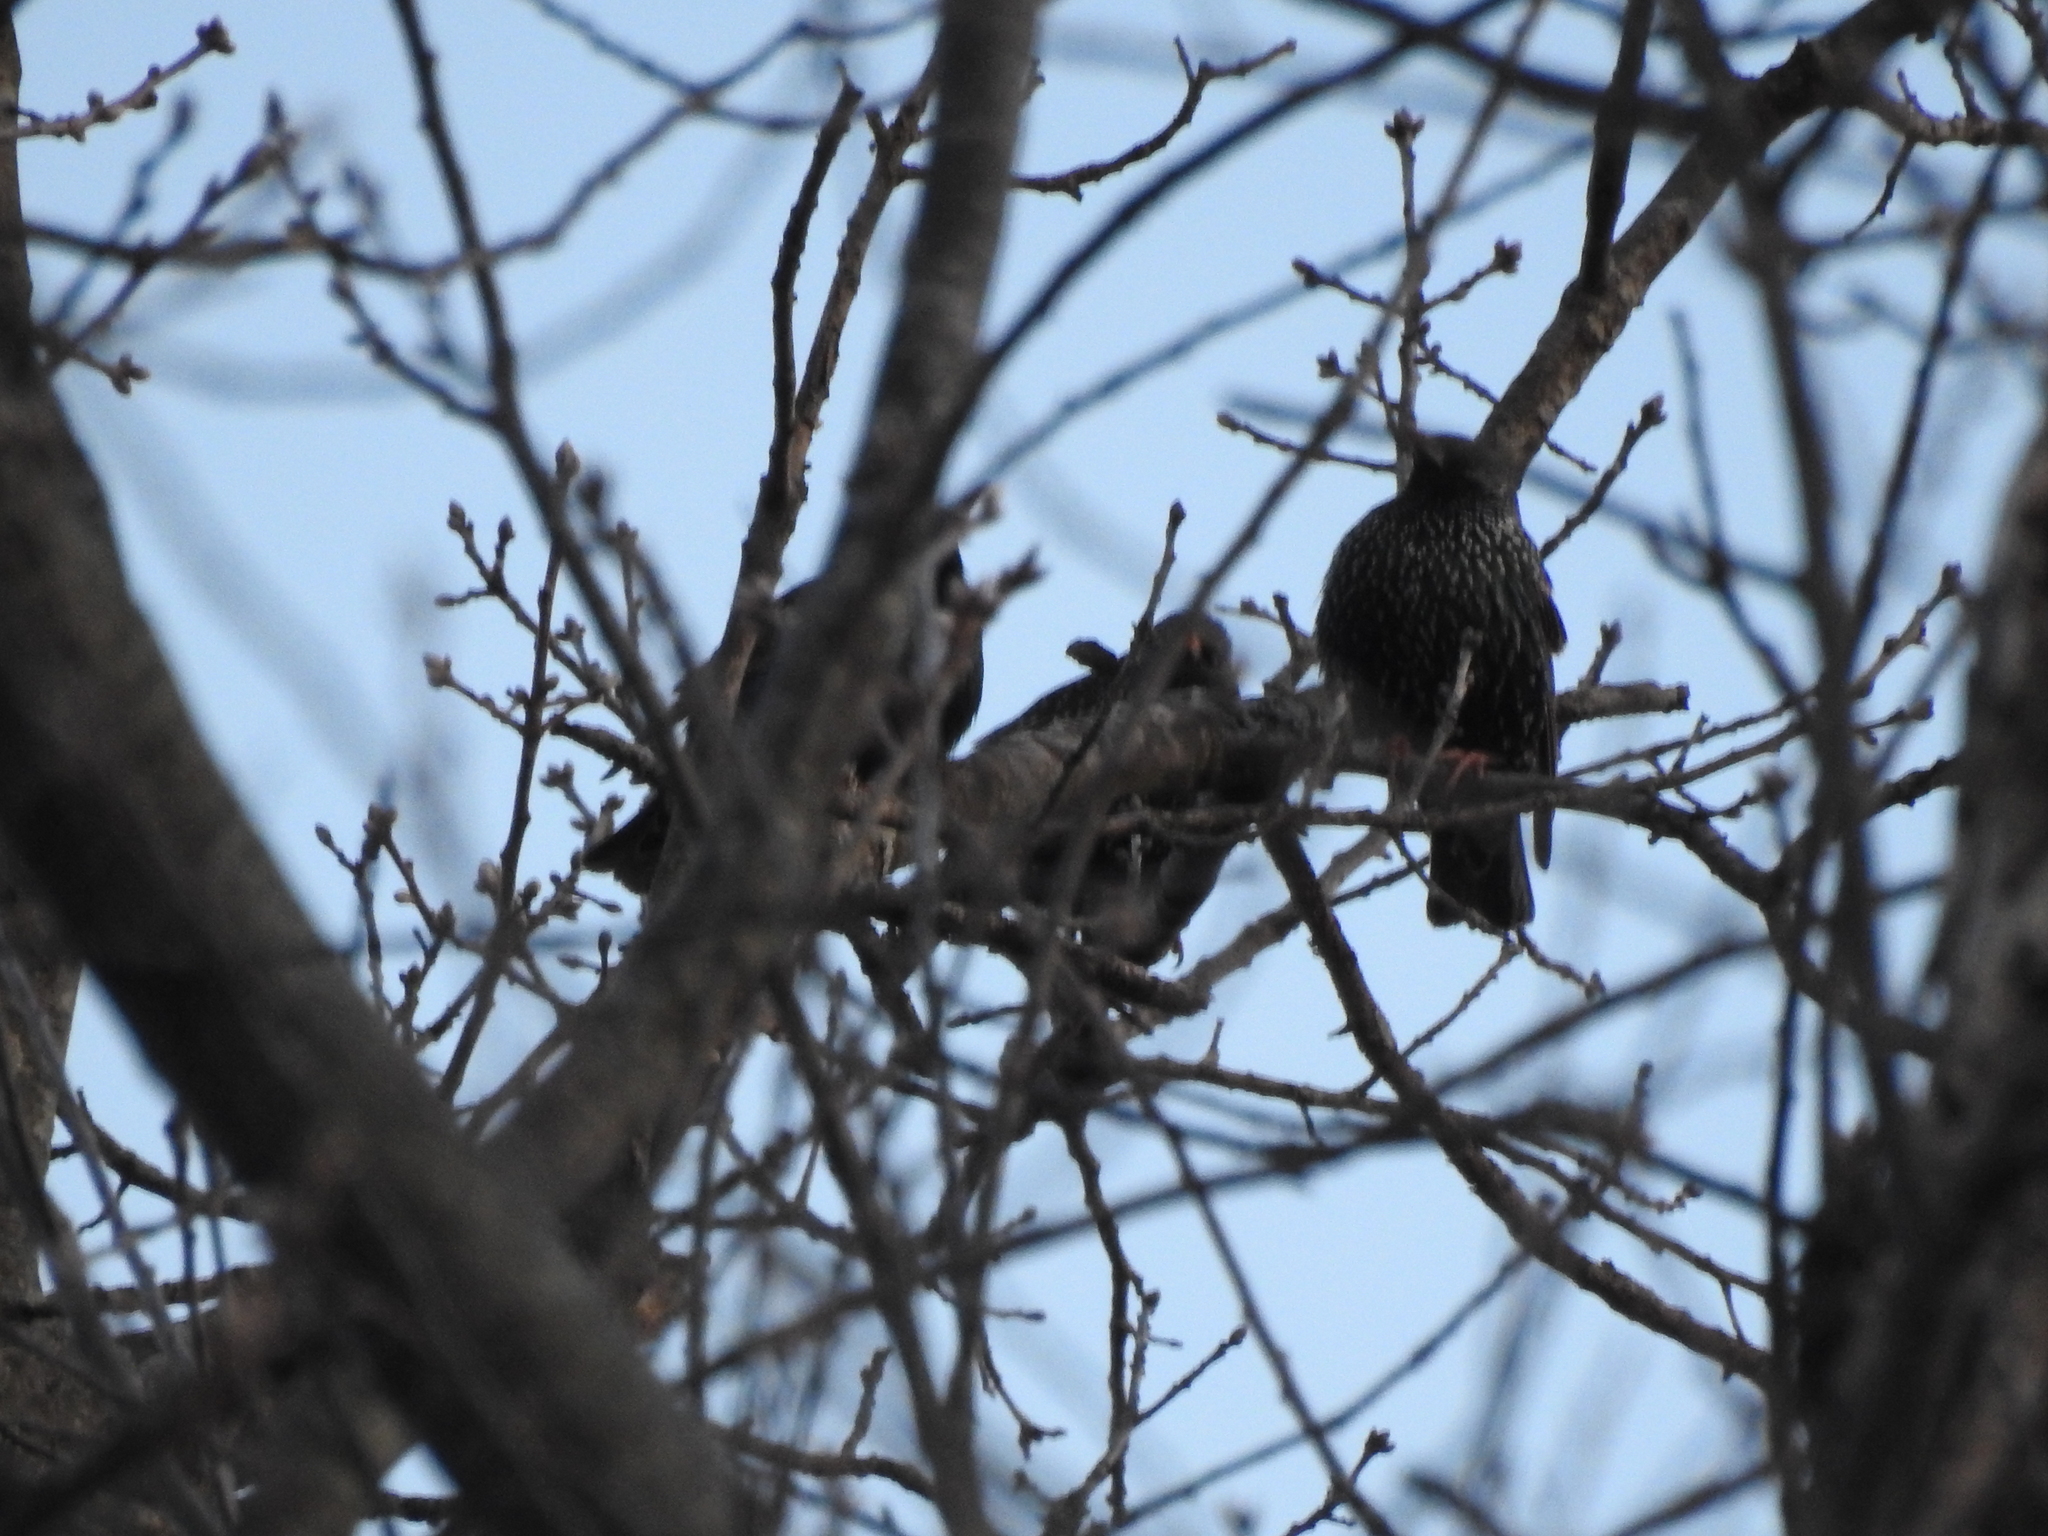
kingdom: Animalia
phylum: Chordata
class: Aves
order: Passeriformes
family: Sturnidae
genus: Sturnus
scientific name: Sturnus vulgaris
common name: Common starling
